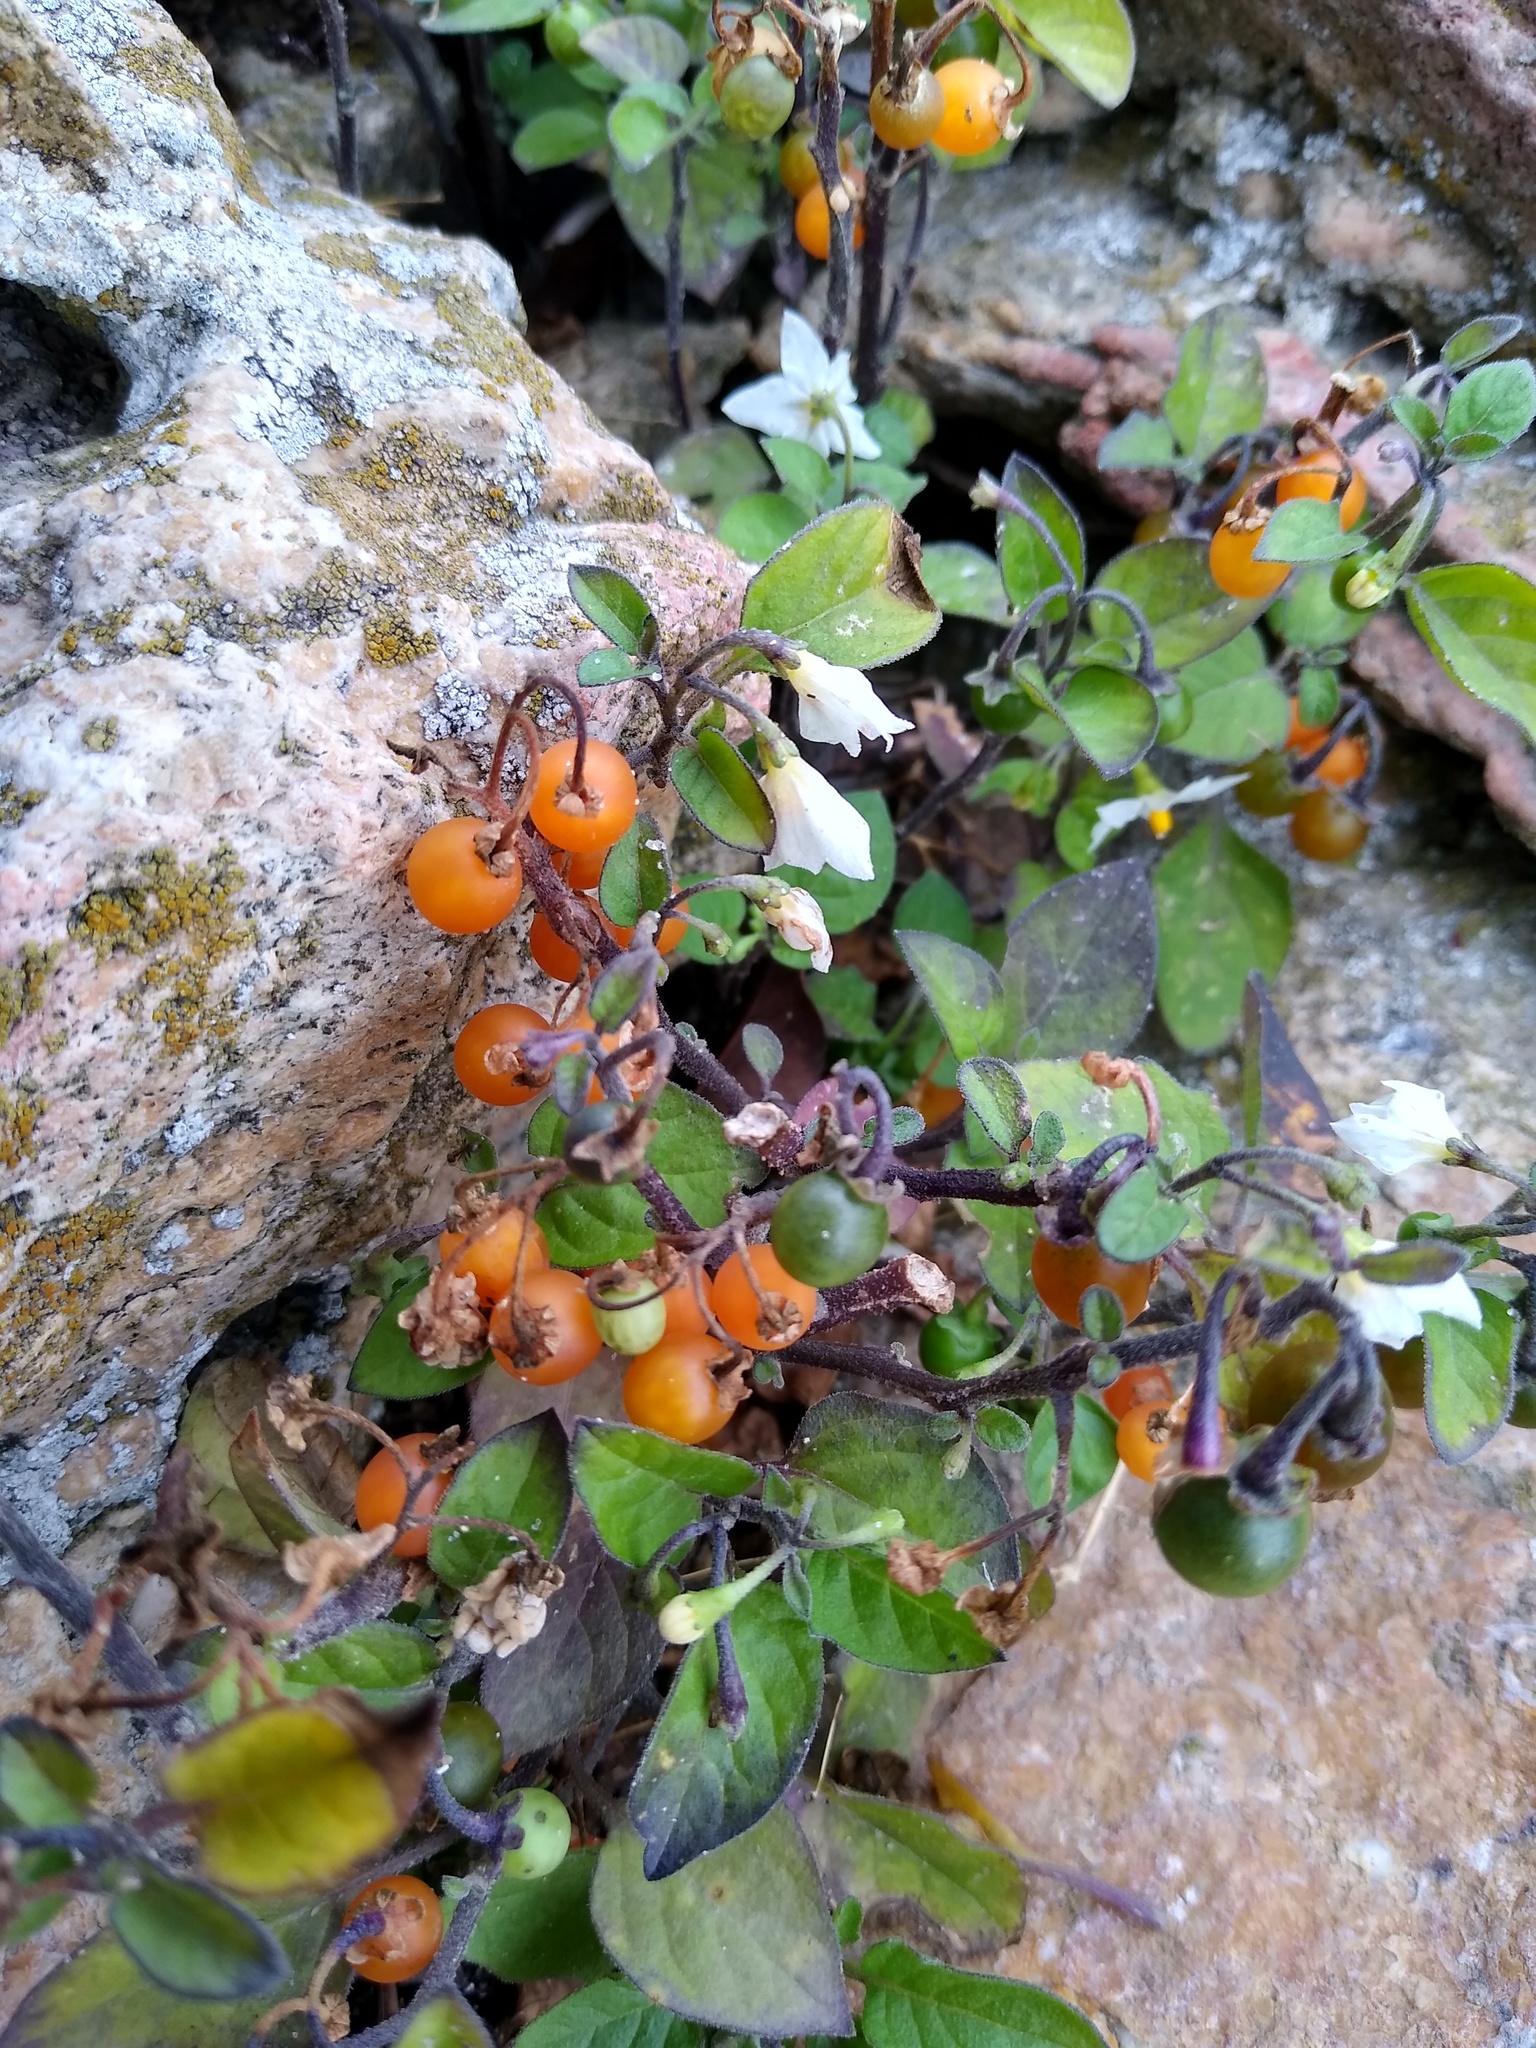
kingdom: Plantae
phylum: Tracheophyta
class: Magnoliopsida
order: Solanales
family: Solanaceae
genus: Solanum
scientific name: Solanum villosum
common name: Red nightshade
